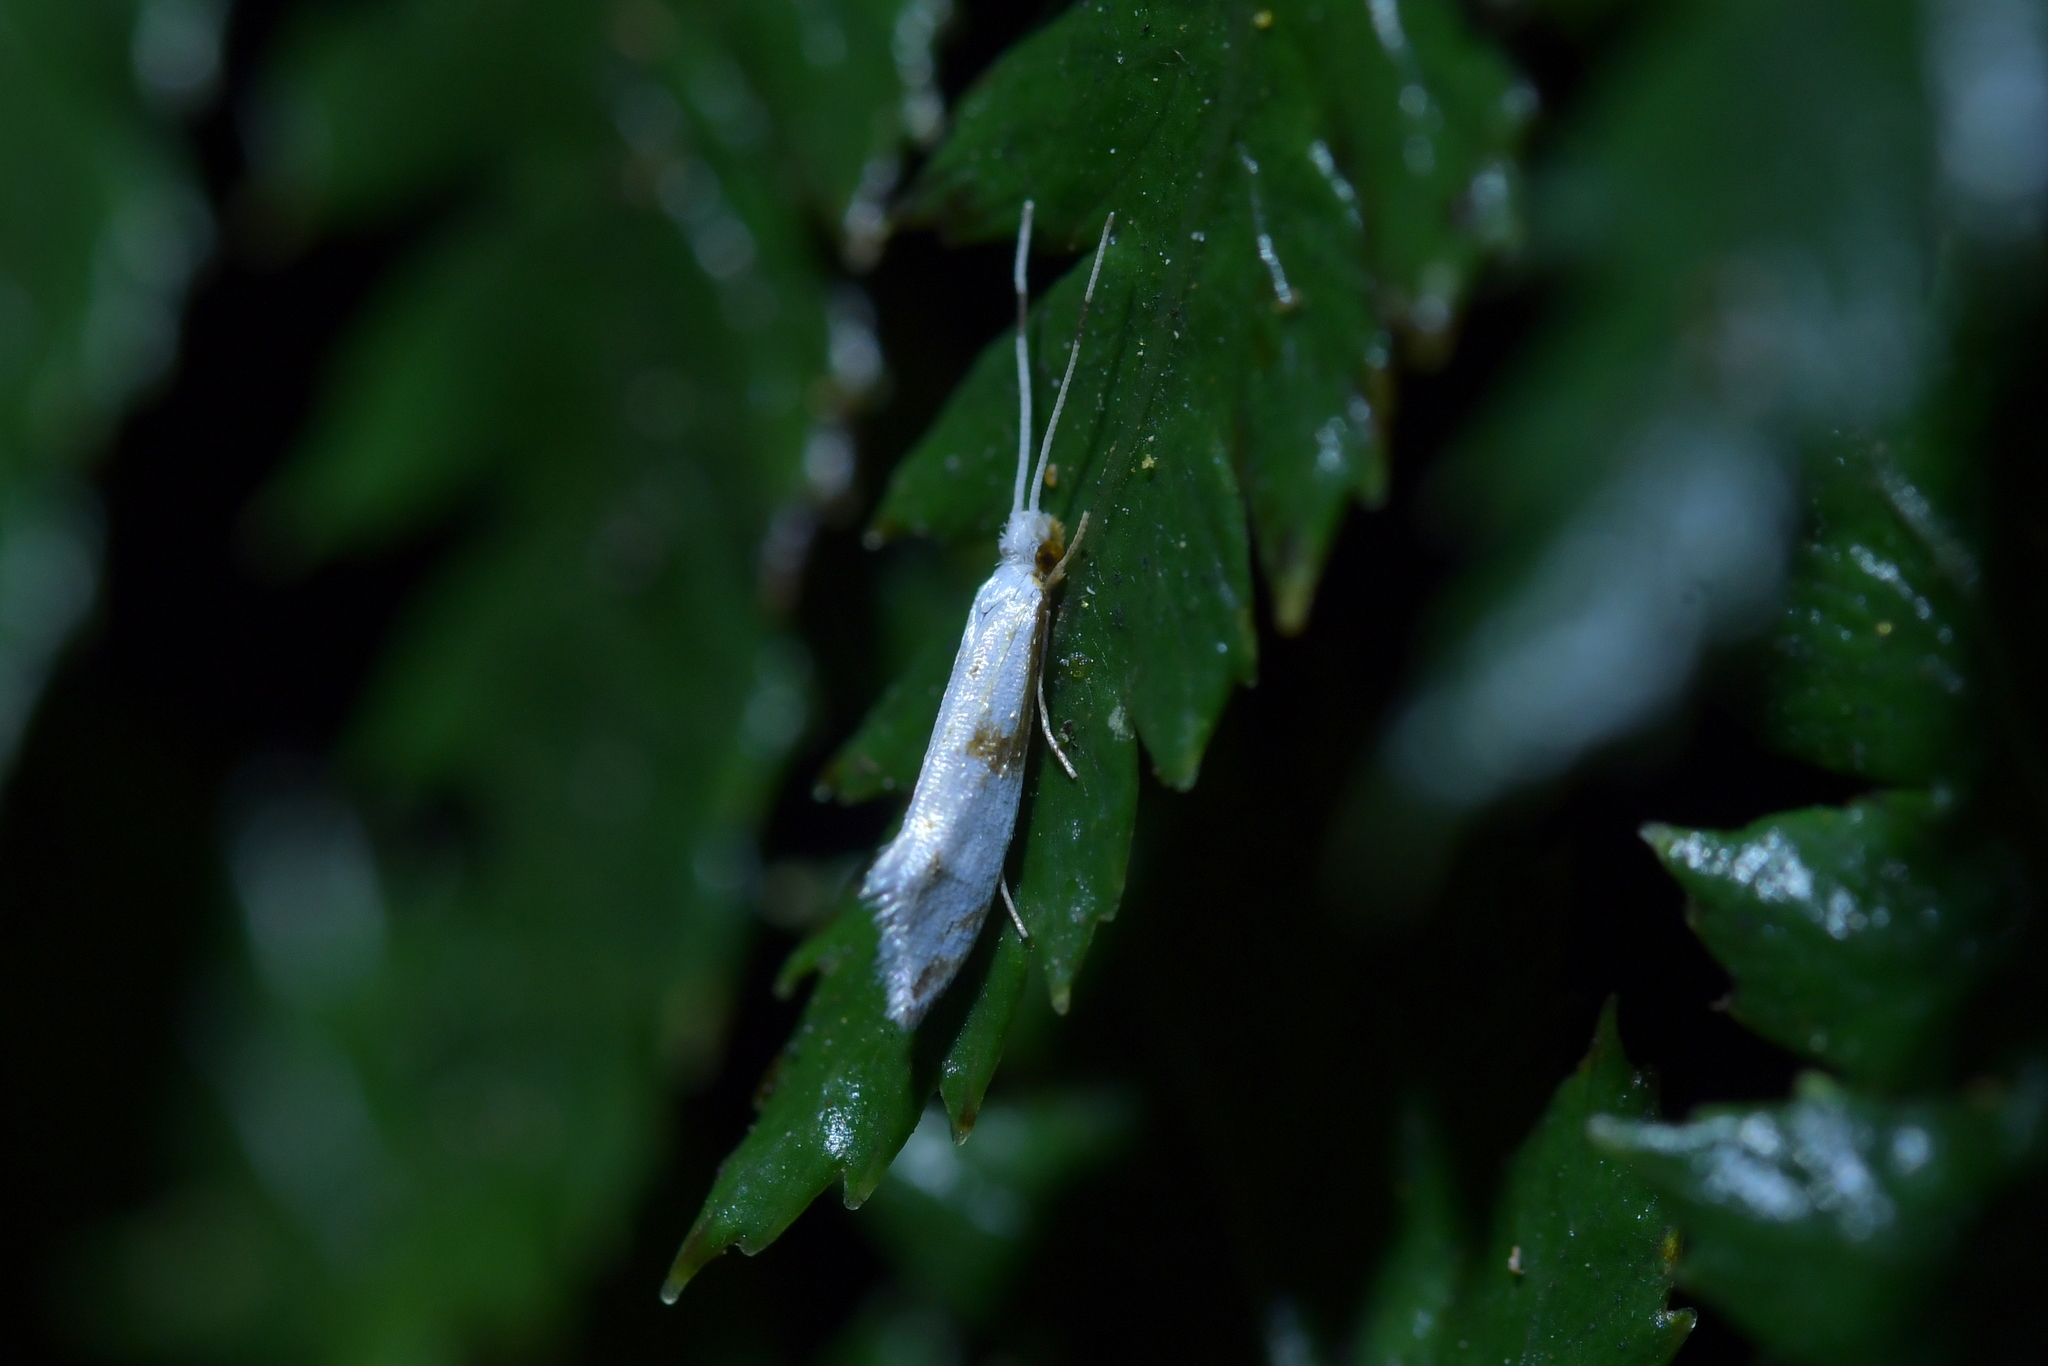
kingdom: Animalia
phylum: Arthropoda
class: Insecta
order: Lepidoptera
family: Tineidae
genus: Sagephora
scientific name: Sagephora felix
